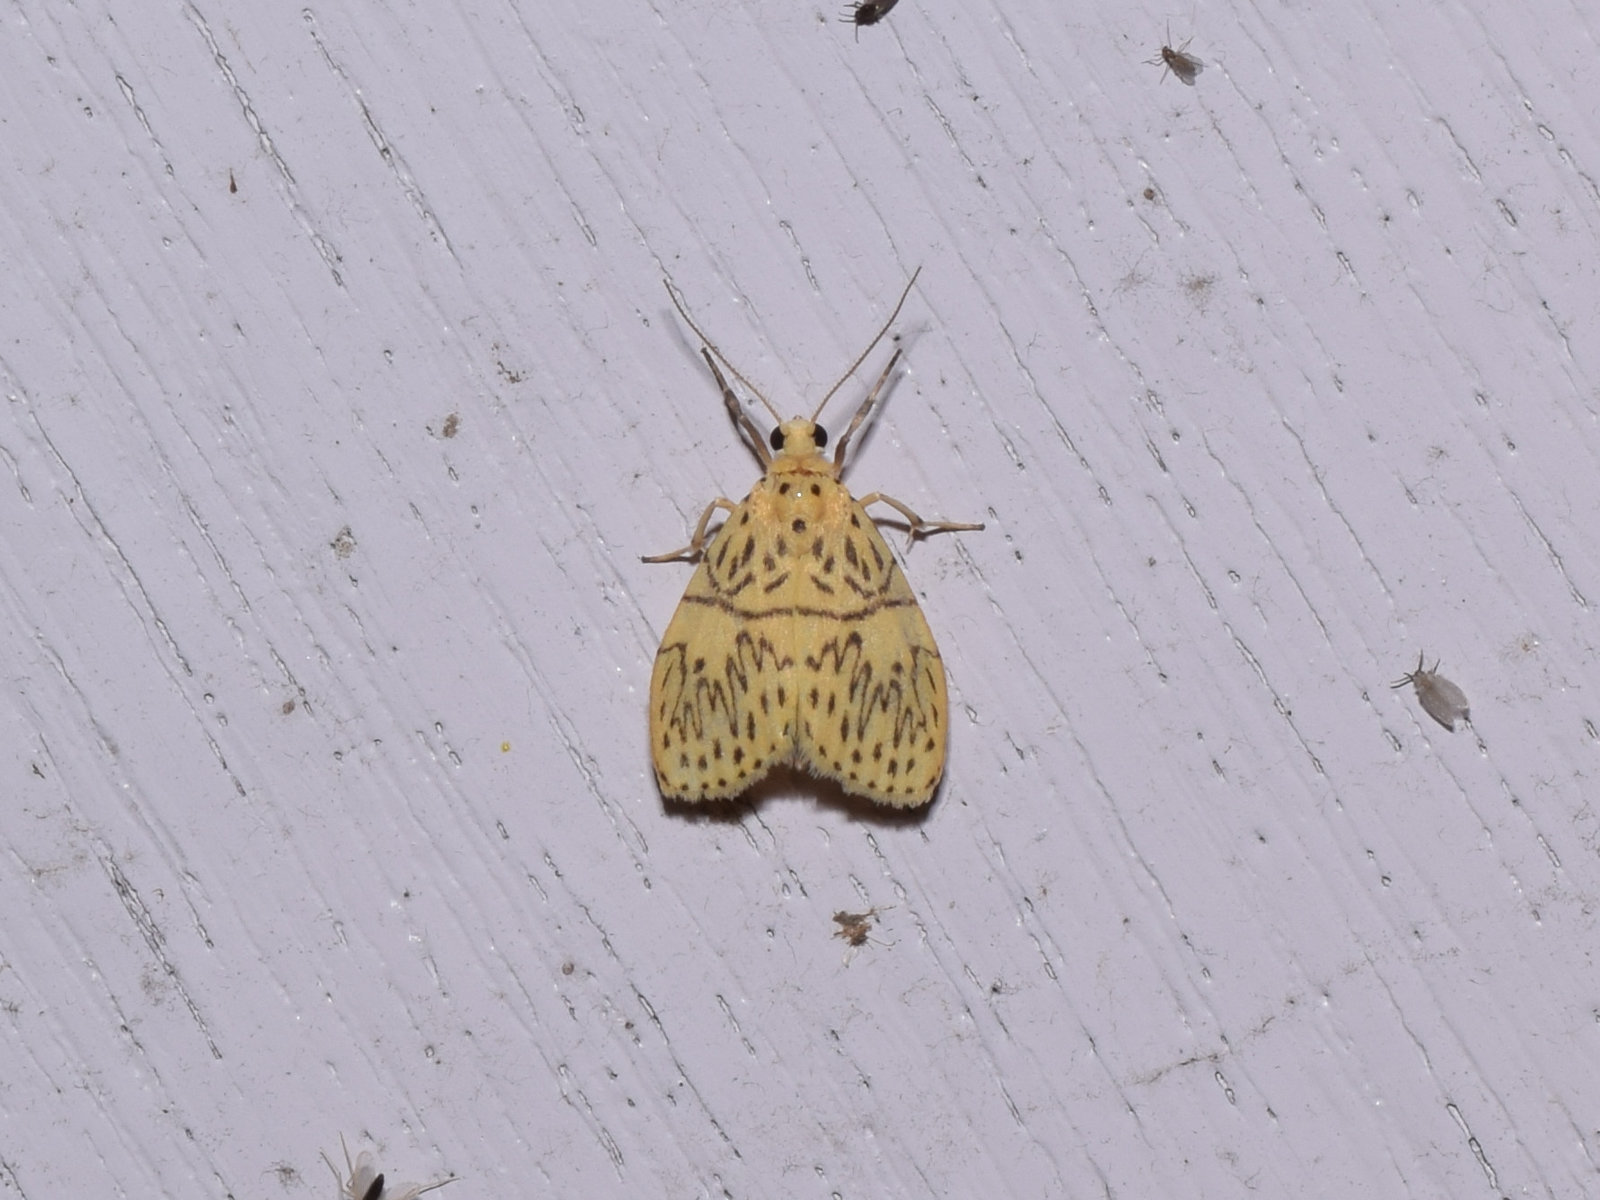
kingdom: Animalia
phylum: Arthropoda
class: Insecta
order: Lepidoptera
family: Erebidae
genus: Pseudobarsine
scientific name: Pseudobarsine bombdilensis
